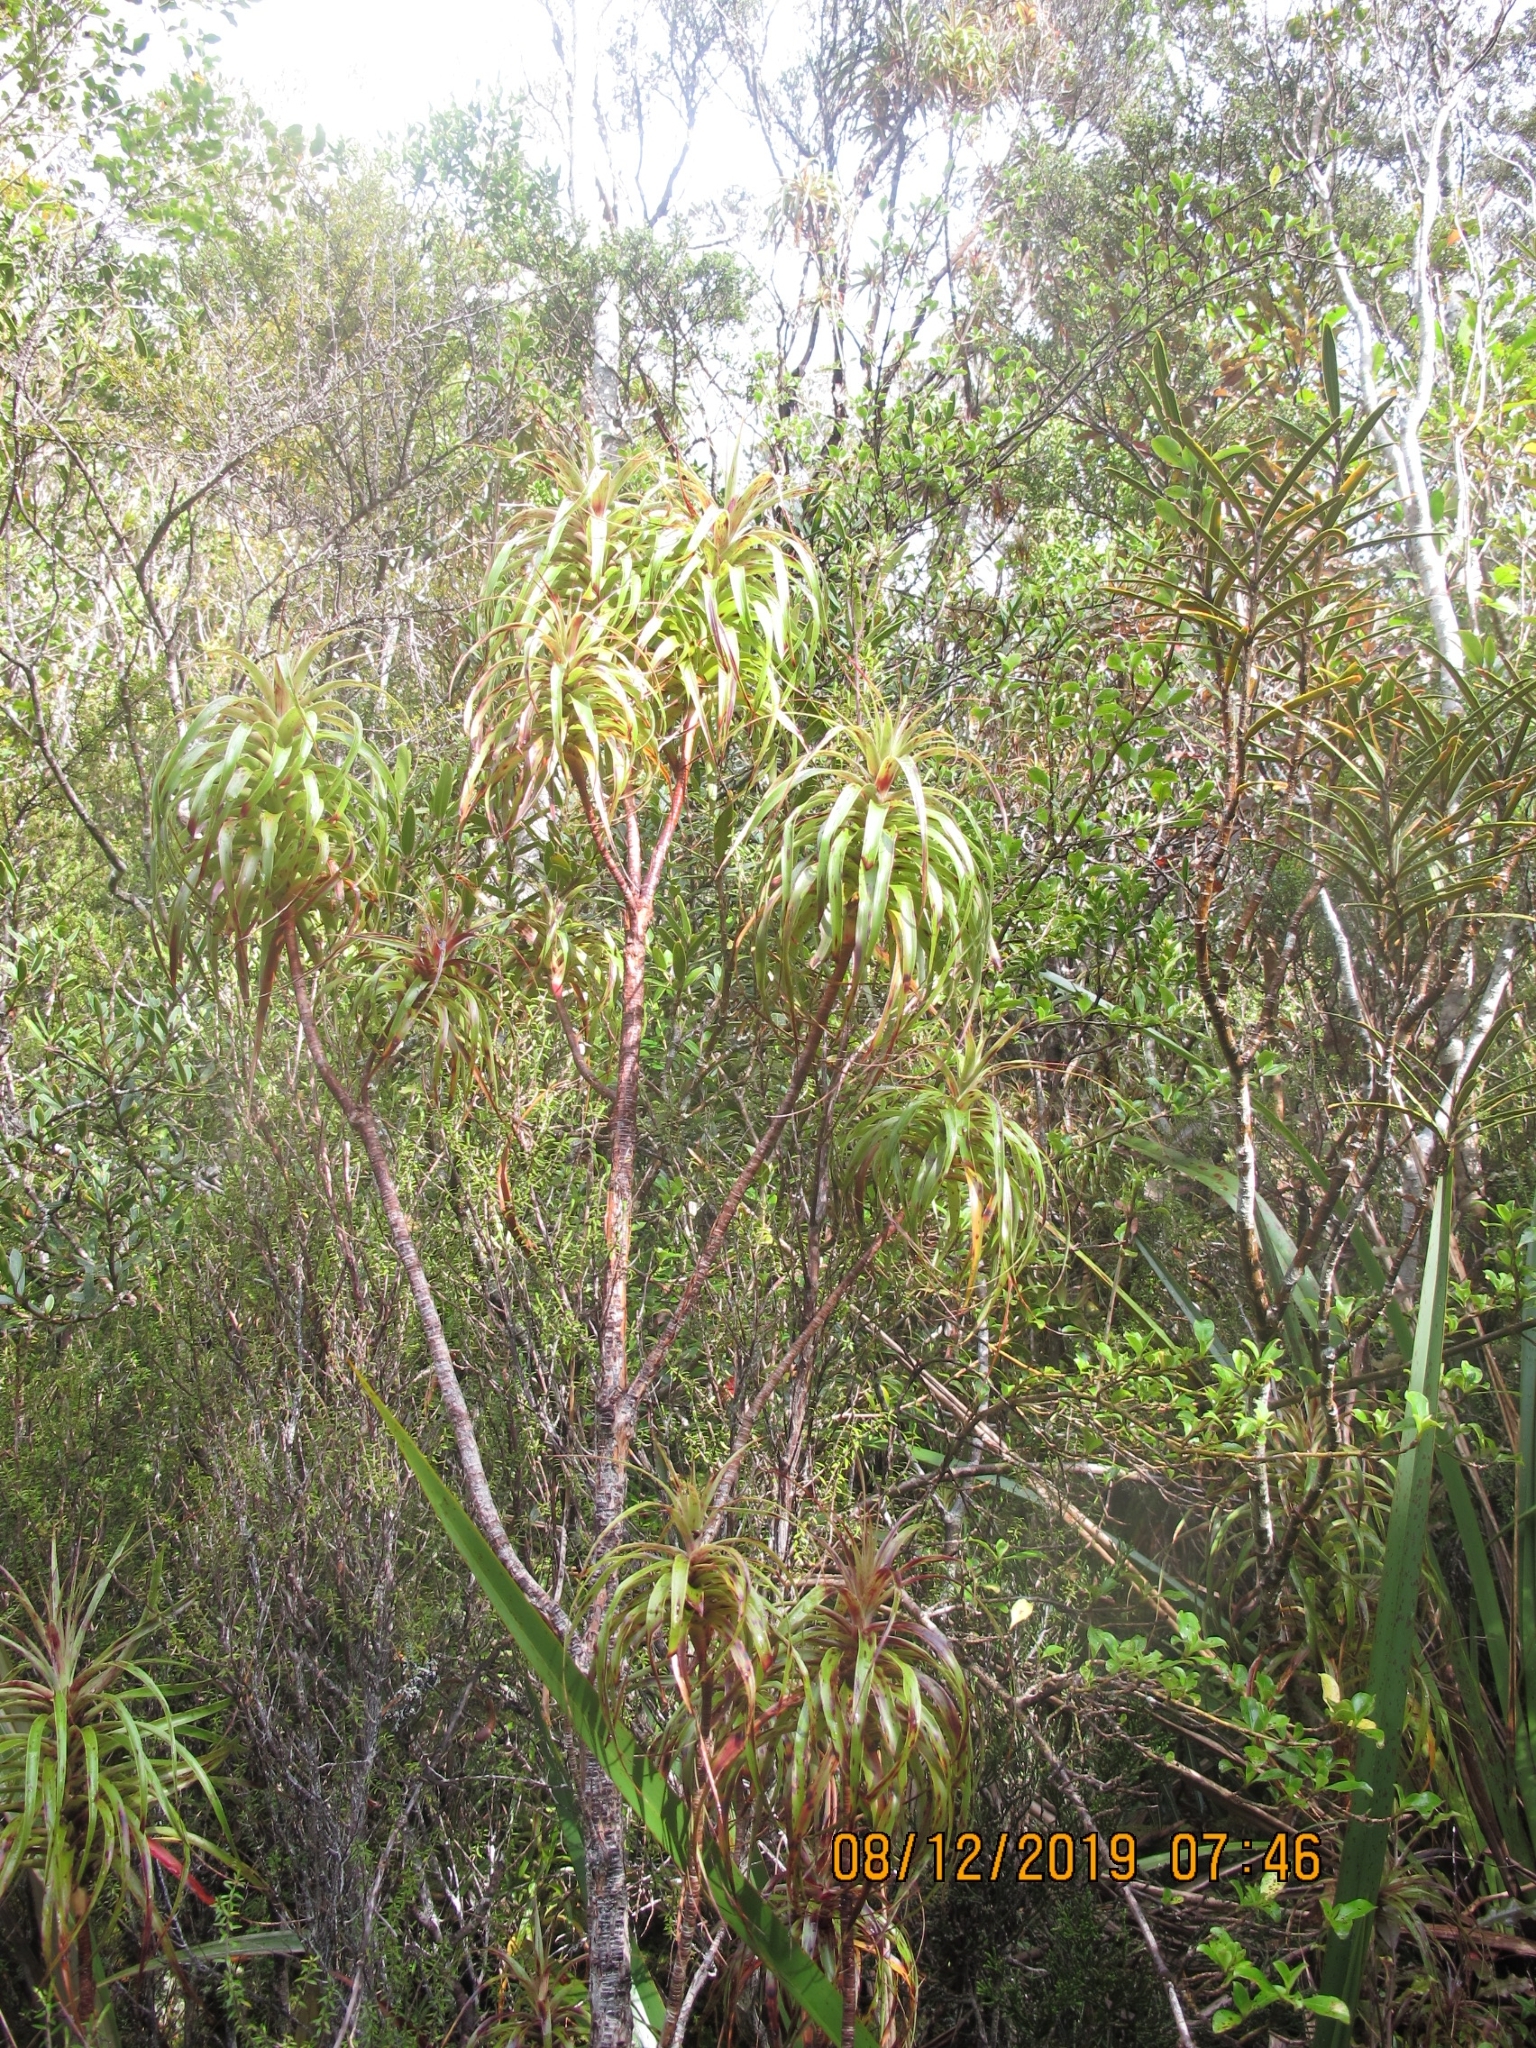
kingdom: Plantae
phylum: Tracheophyta
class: Magnoliopsida
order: Ericales
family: Ericaceae
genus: Dracophyllum
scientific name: Dracophyllum townsonii
